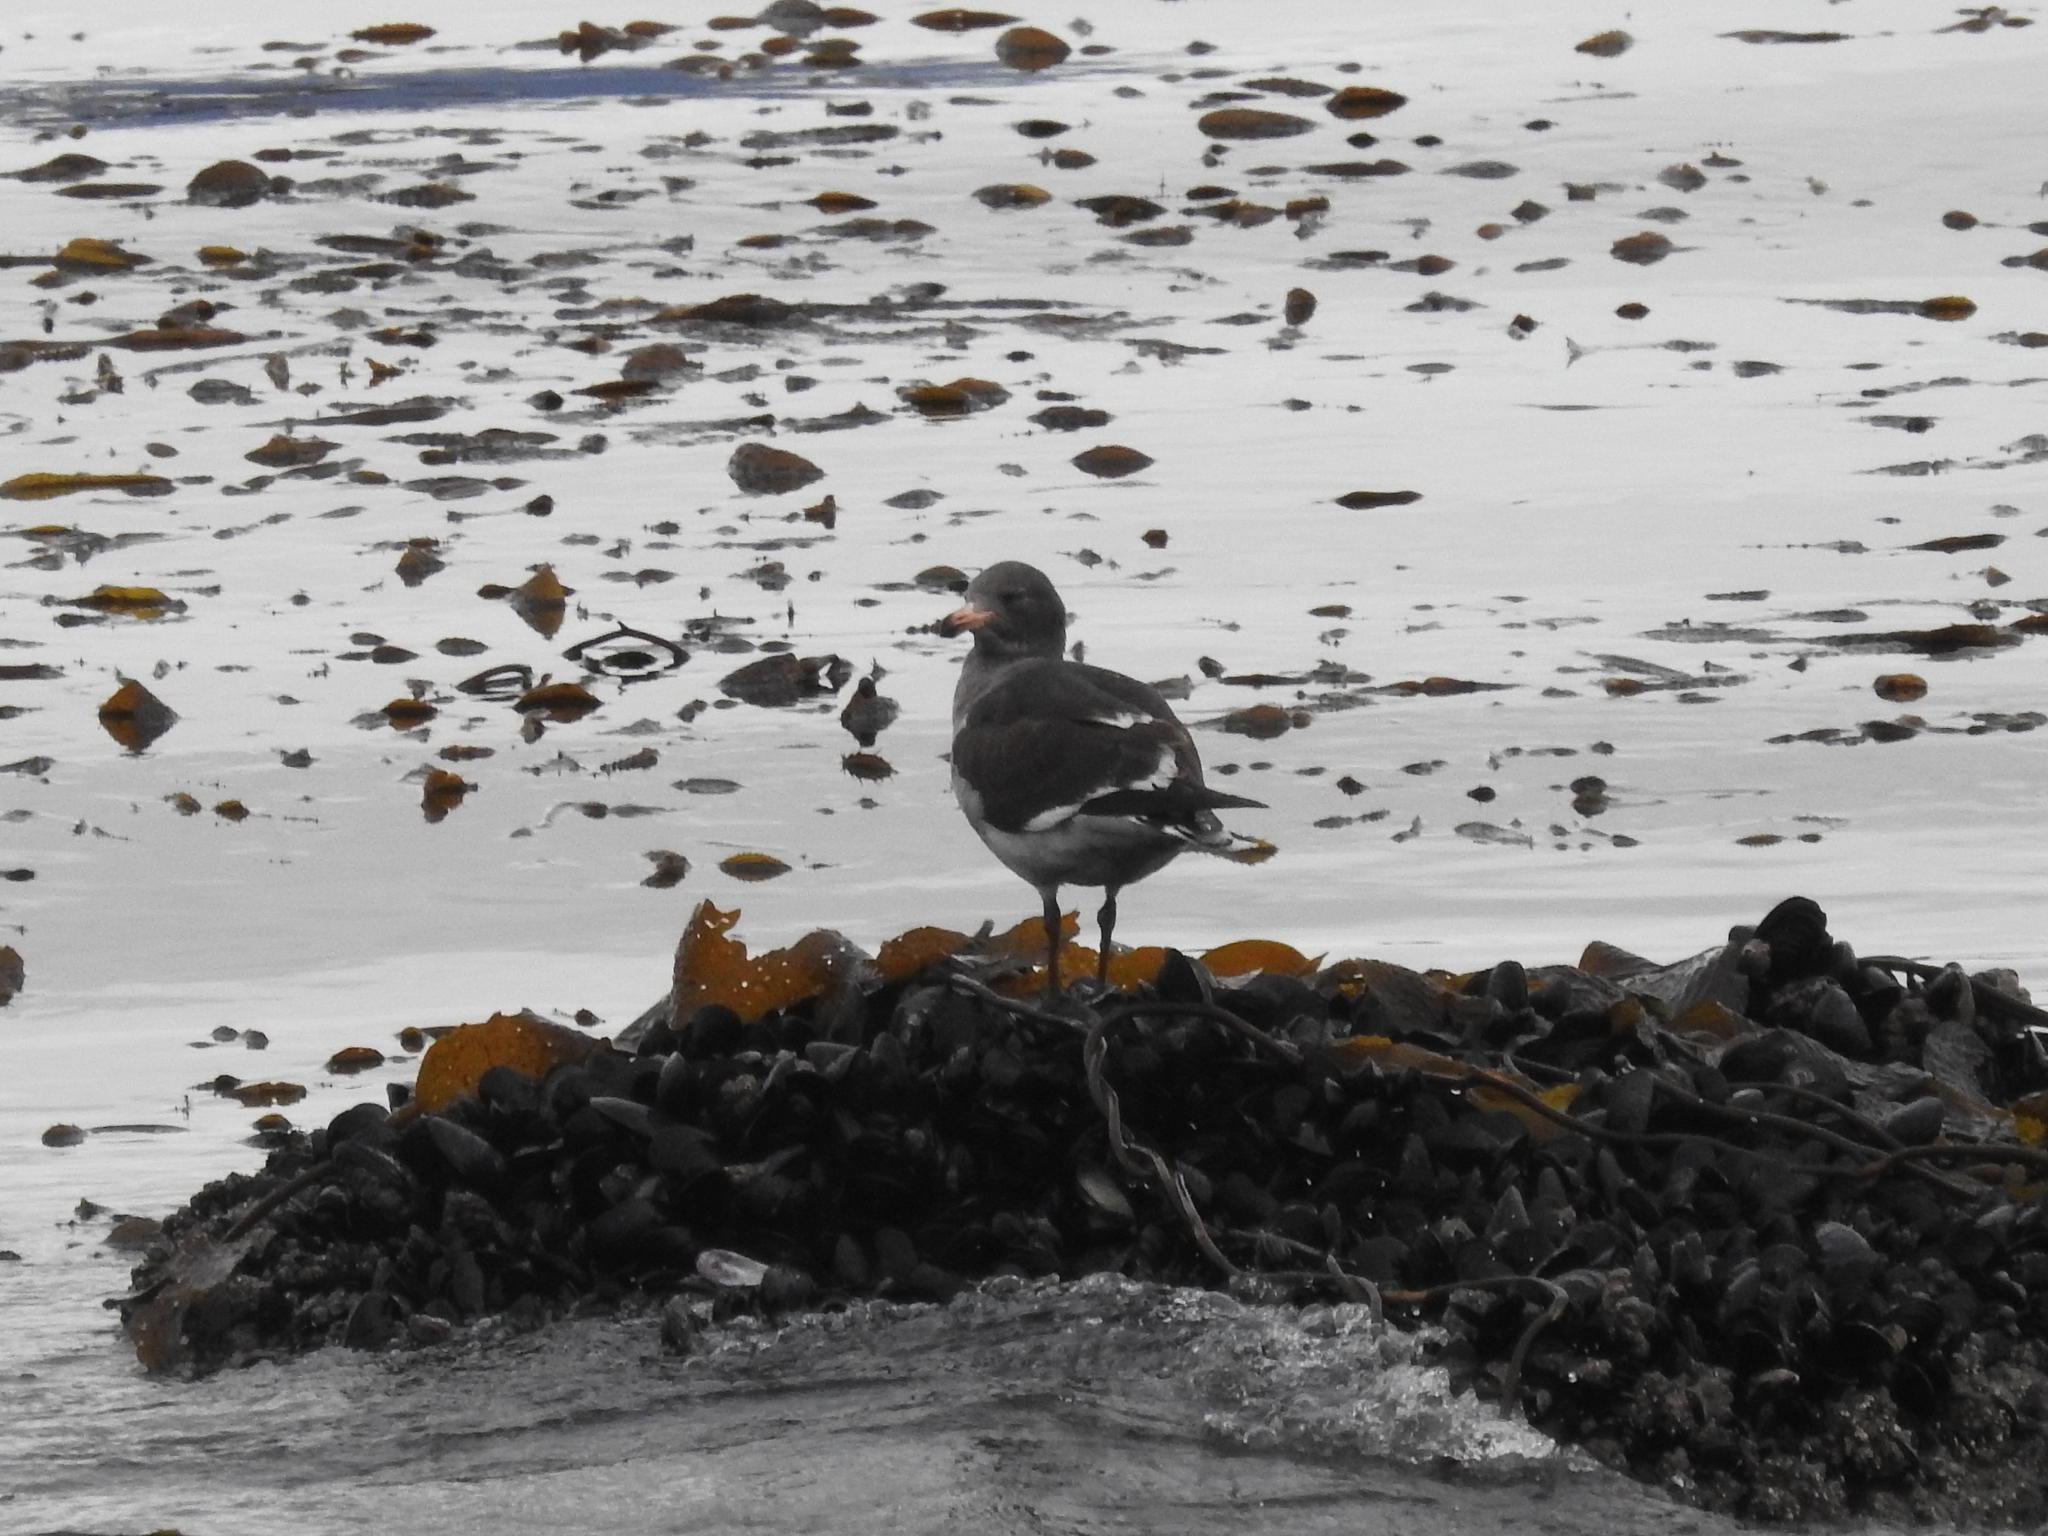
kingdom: Animalia
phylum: Chordata
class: Aves
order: Charadriiformes
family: Laridae
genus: Leucophaeus
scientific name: Leucophaeus scoresbii
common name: Dolphin gull
